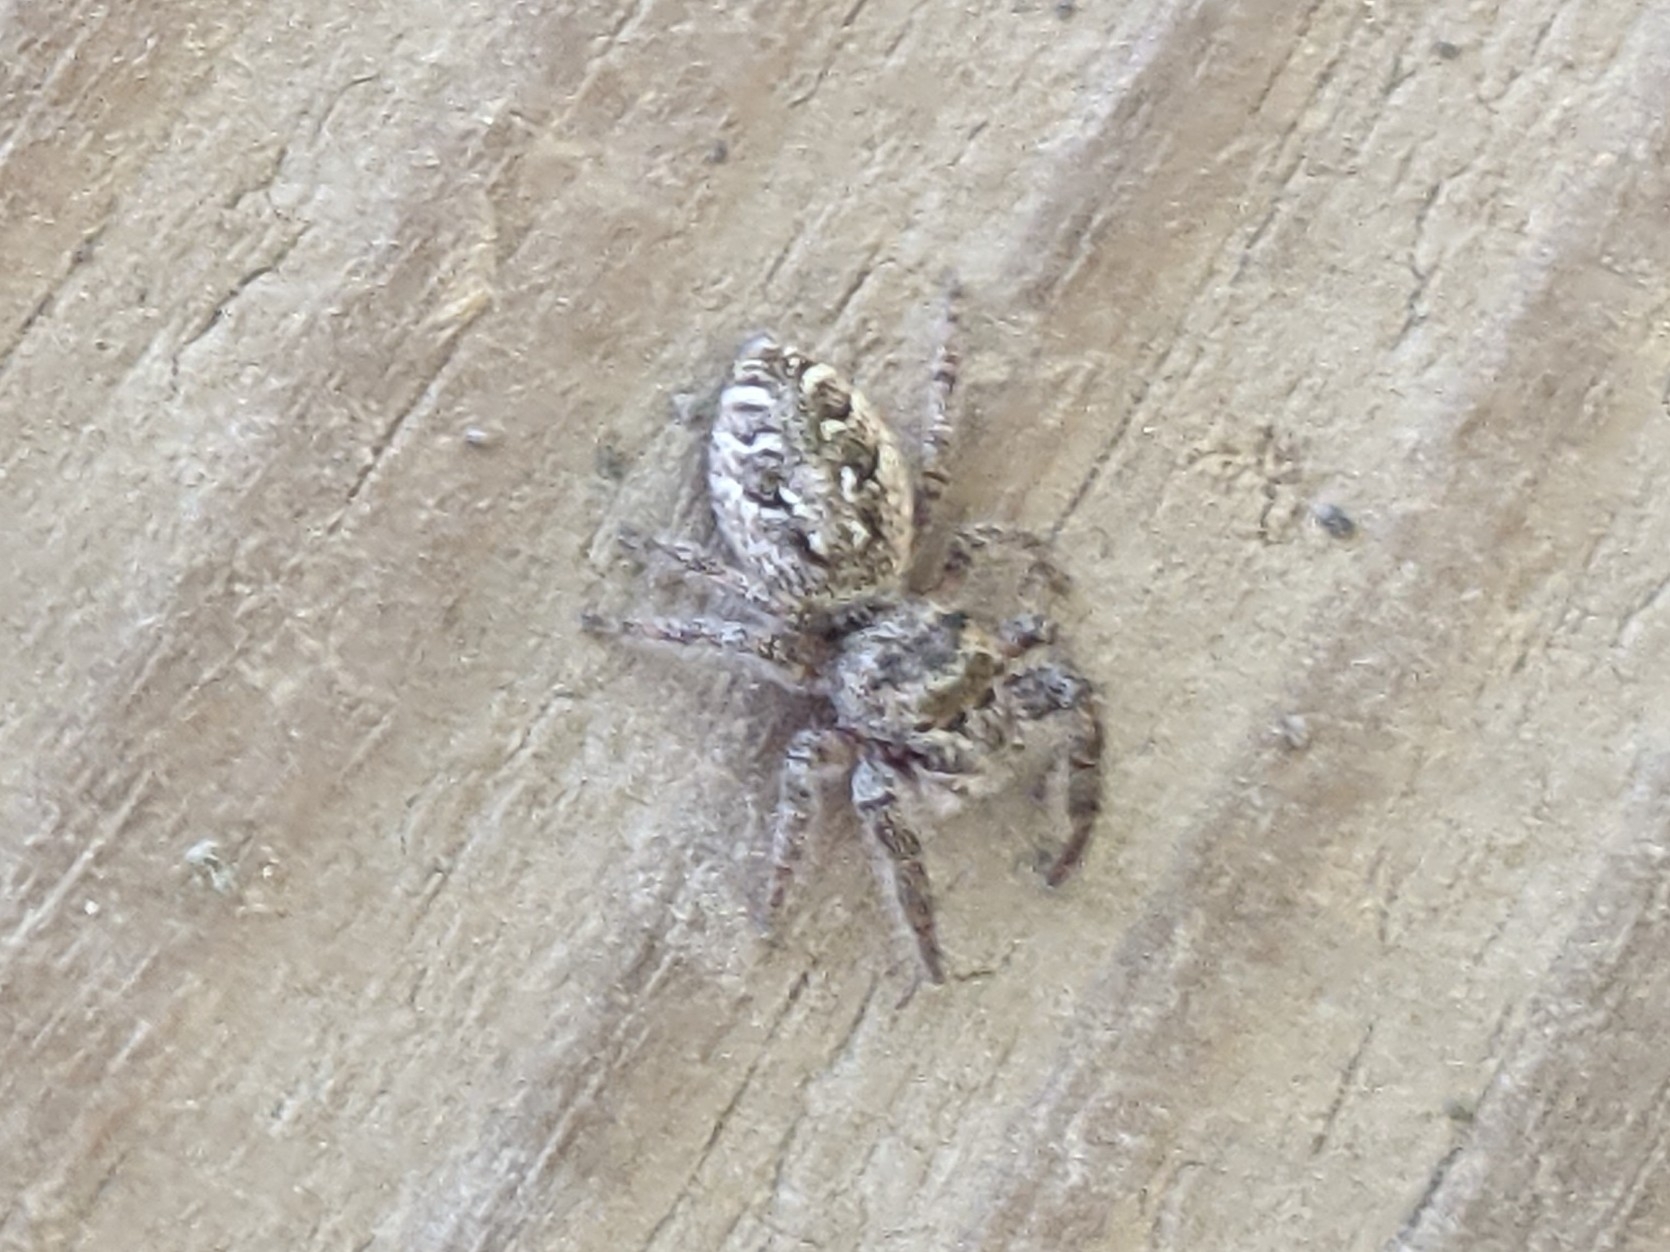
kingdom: Animalia
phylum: Arthropoda
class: Arachnida
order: Araneae
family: Salticidae
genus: Eris
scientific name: Eris militaris
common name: Bronze jumper
